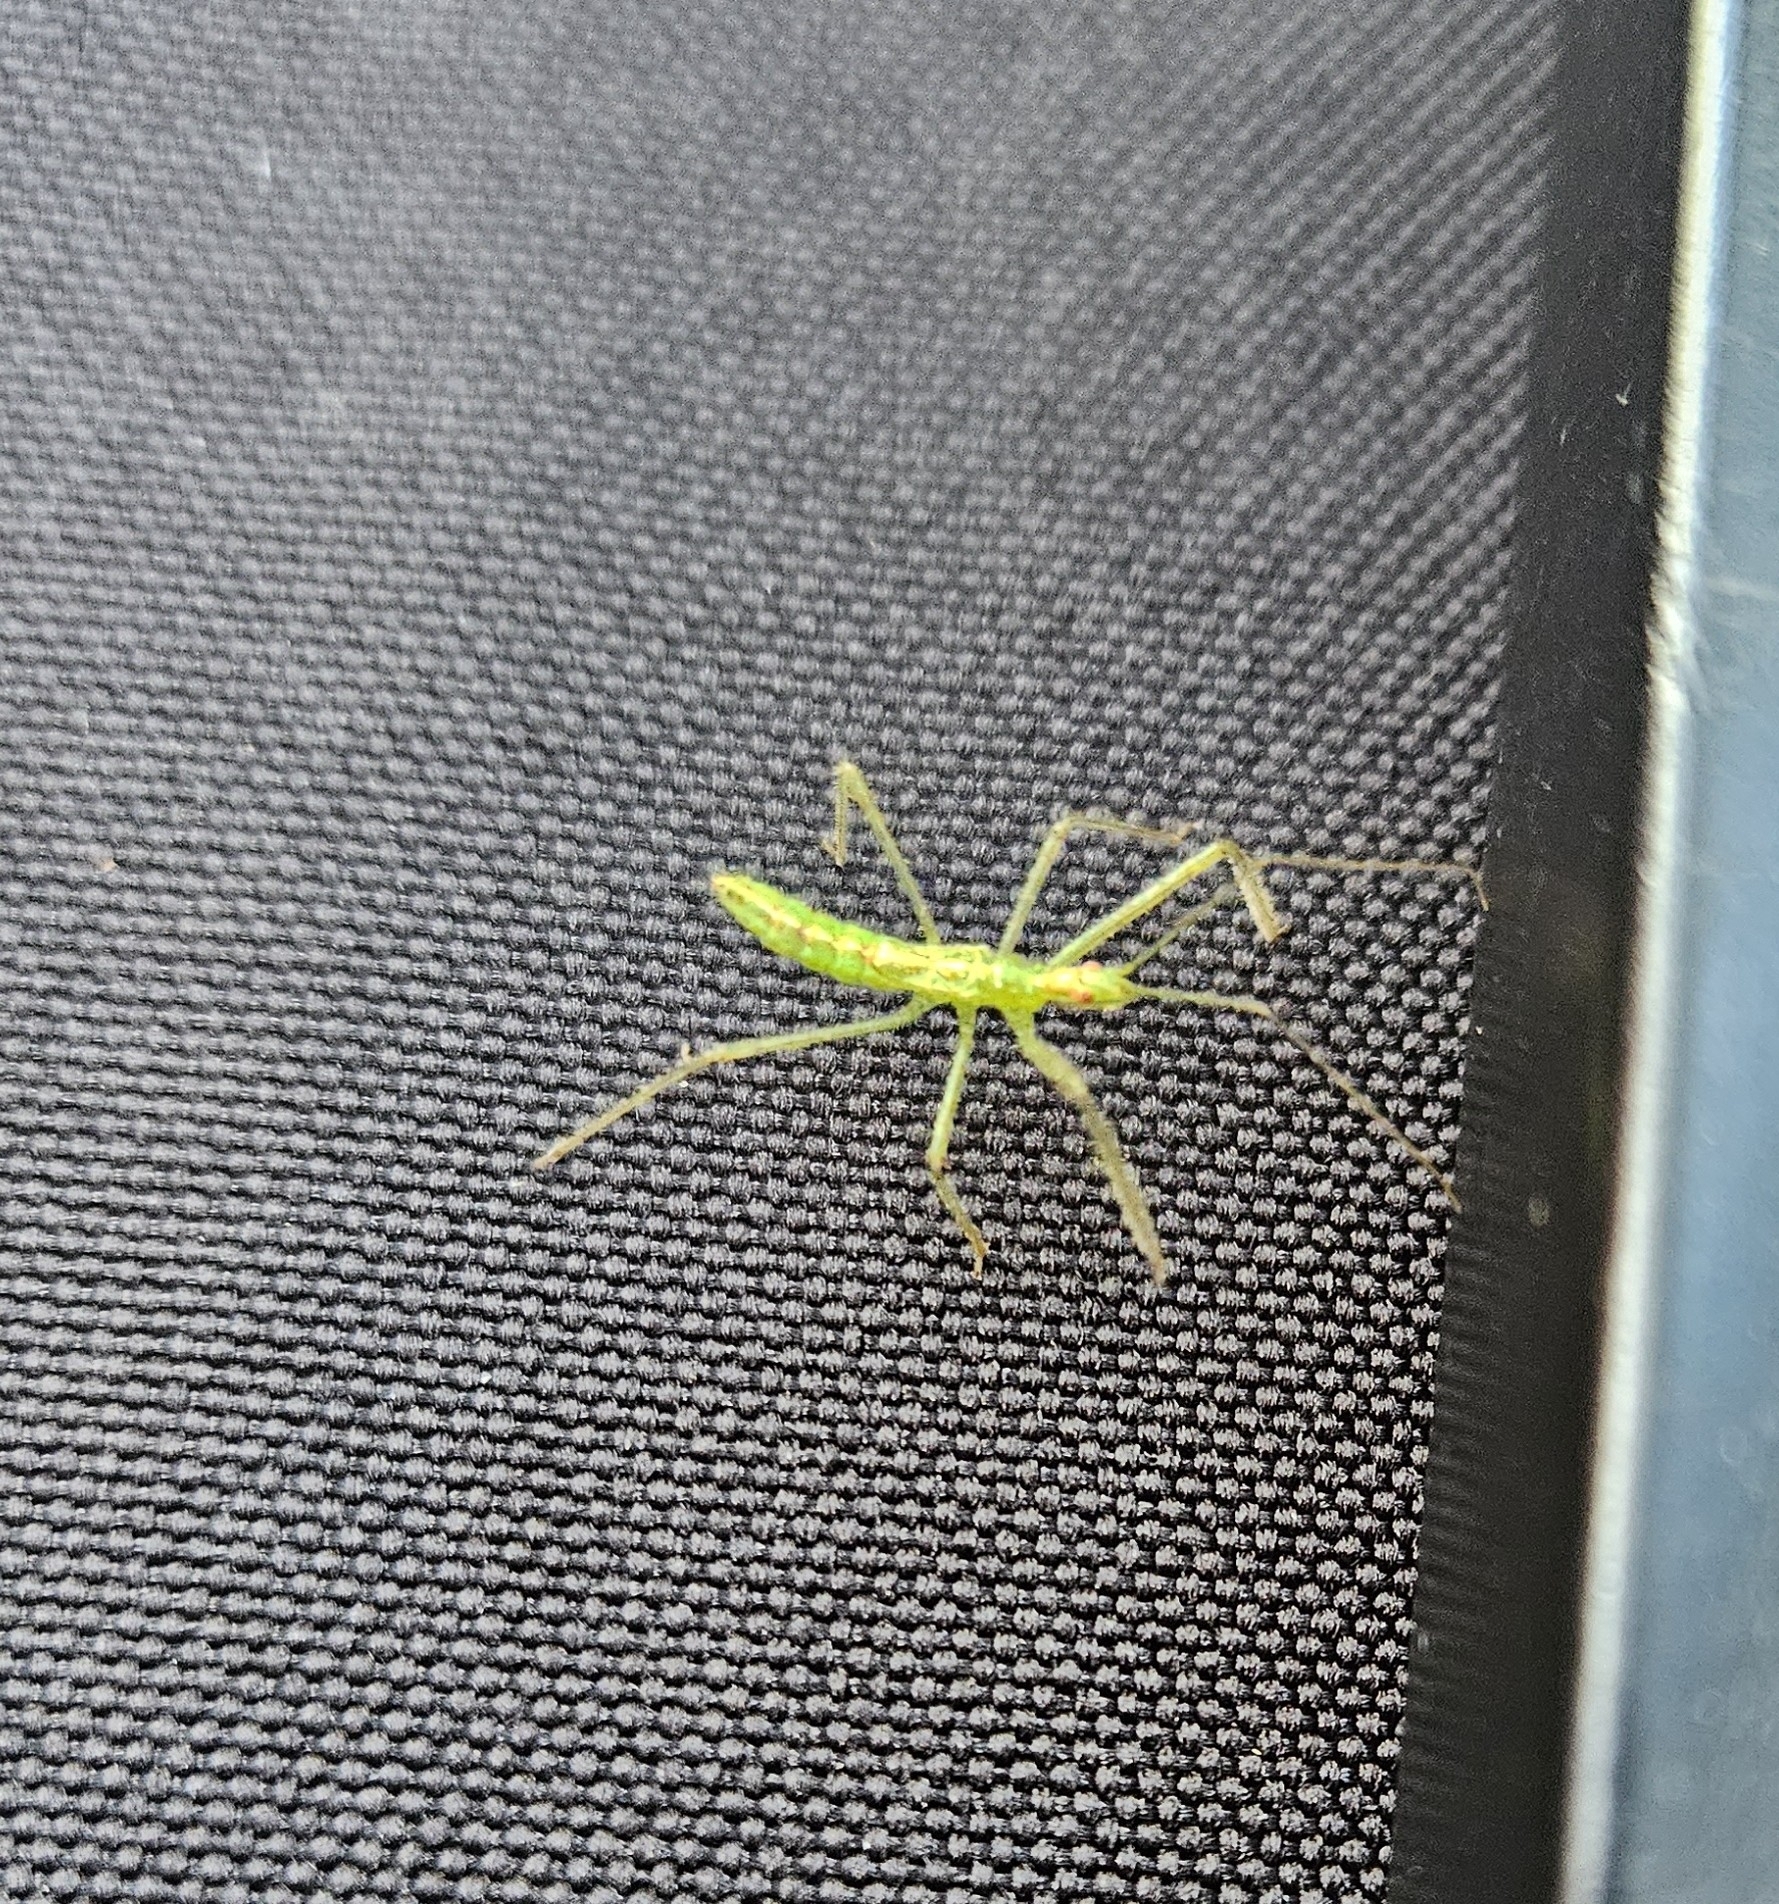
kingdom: Animalia
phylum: Arthropoda
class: Insecta
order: Hemiptera
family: Reduviidae
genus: Zelus
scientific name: Zelus luridus
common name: Pale green assassin bug
